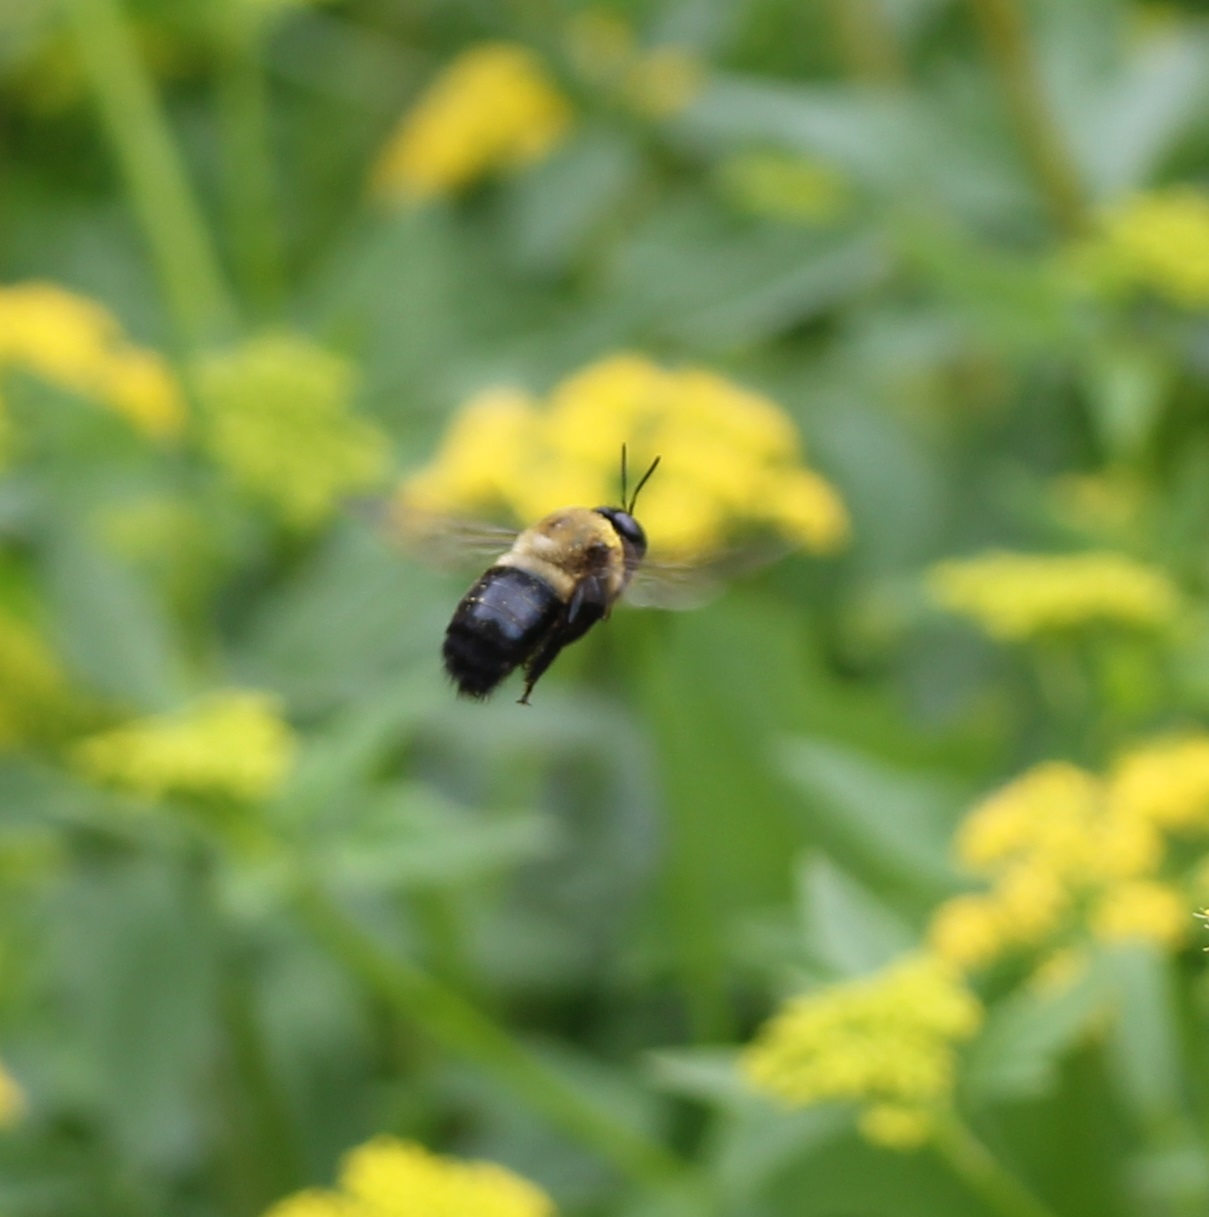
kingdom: Animalia
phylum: Arthropoda
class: Insecta
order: Hymenoptera
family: Apidae
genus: Xylocopa
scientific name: Xylocopa virginica
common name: Carpenter bee
